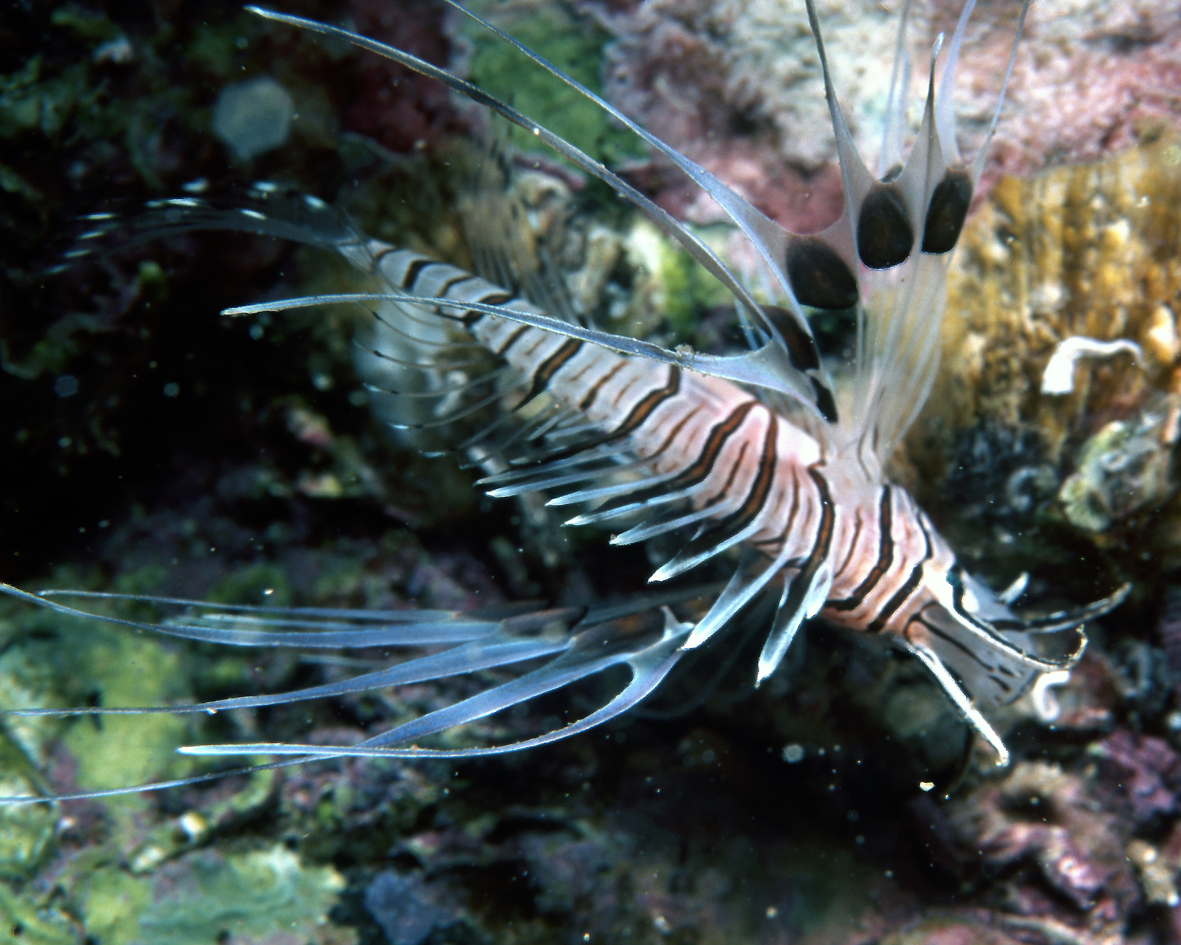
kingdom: Animalia
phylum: Chordata
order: Scorpaeniformes
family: Scorpaenidae
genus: Pterois
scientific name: Pterois volitans
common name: Lionfish
